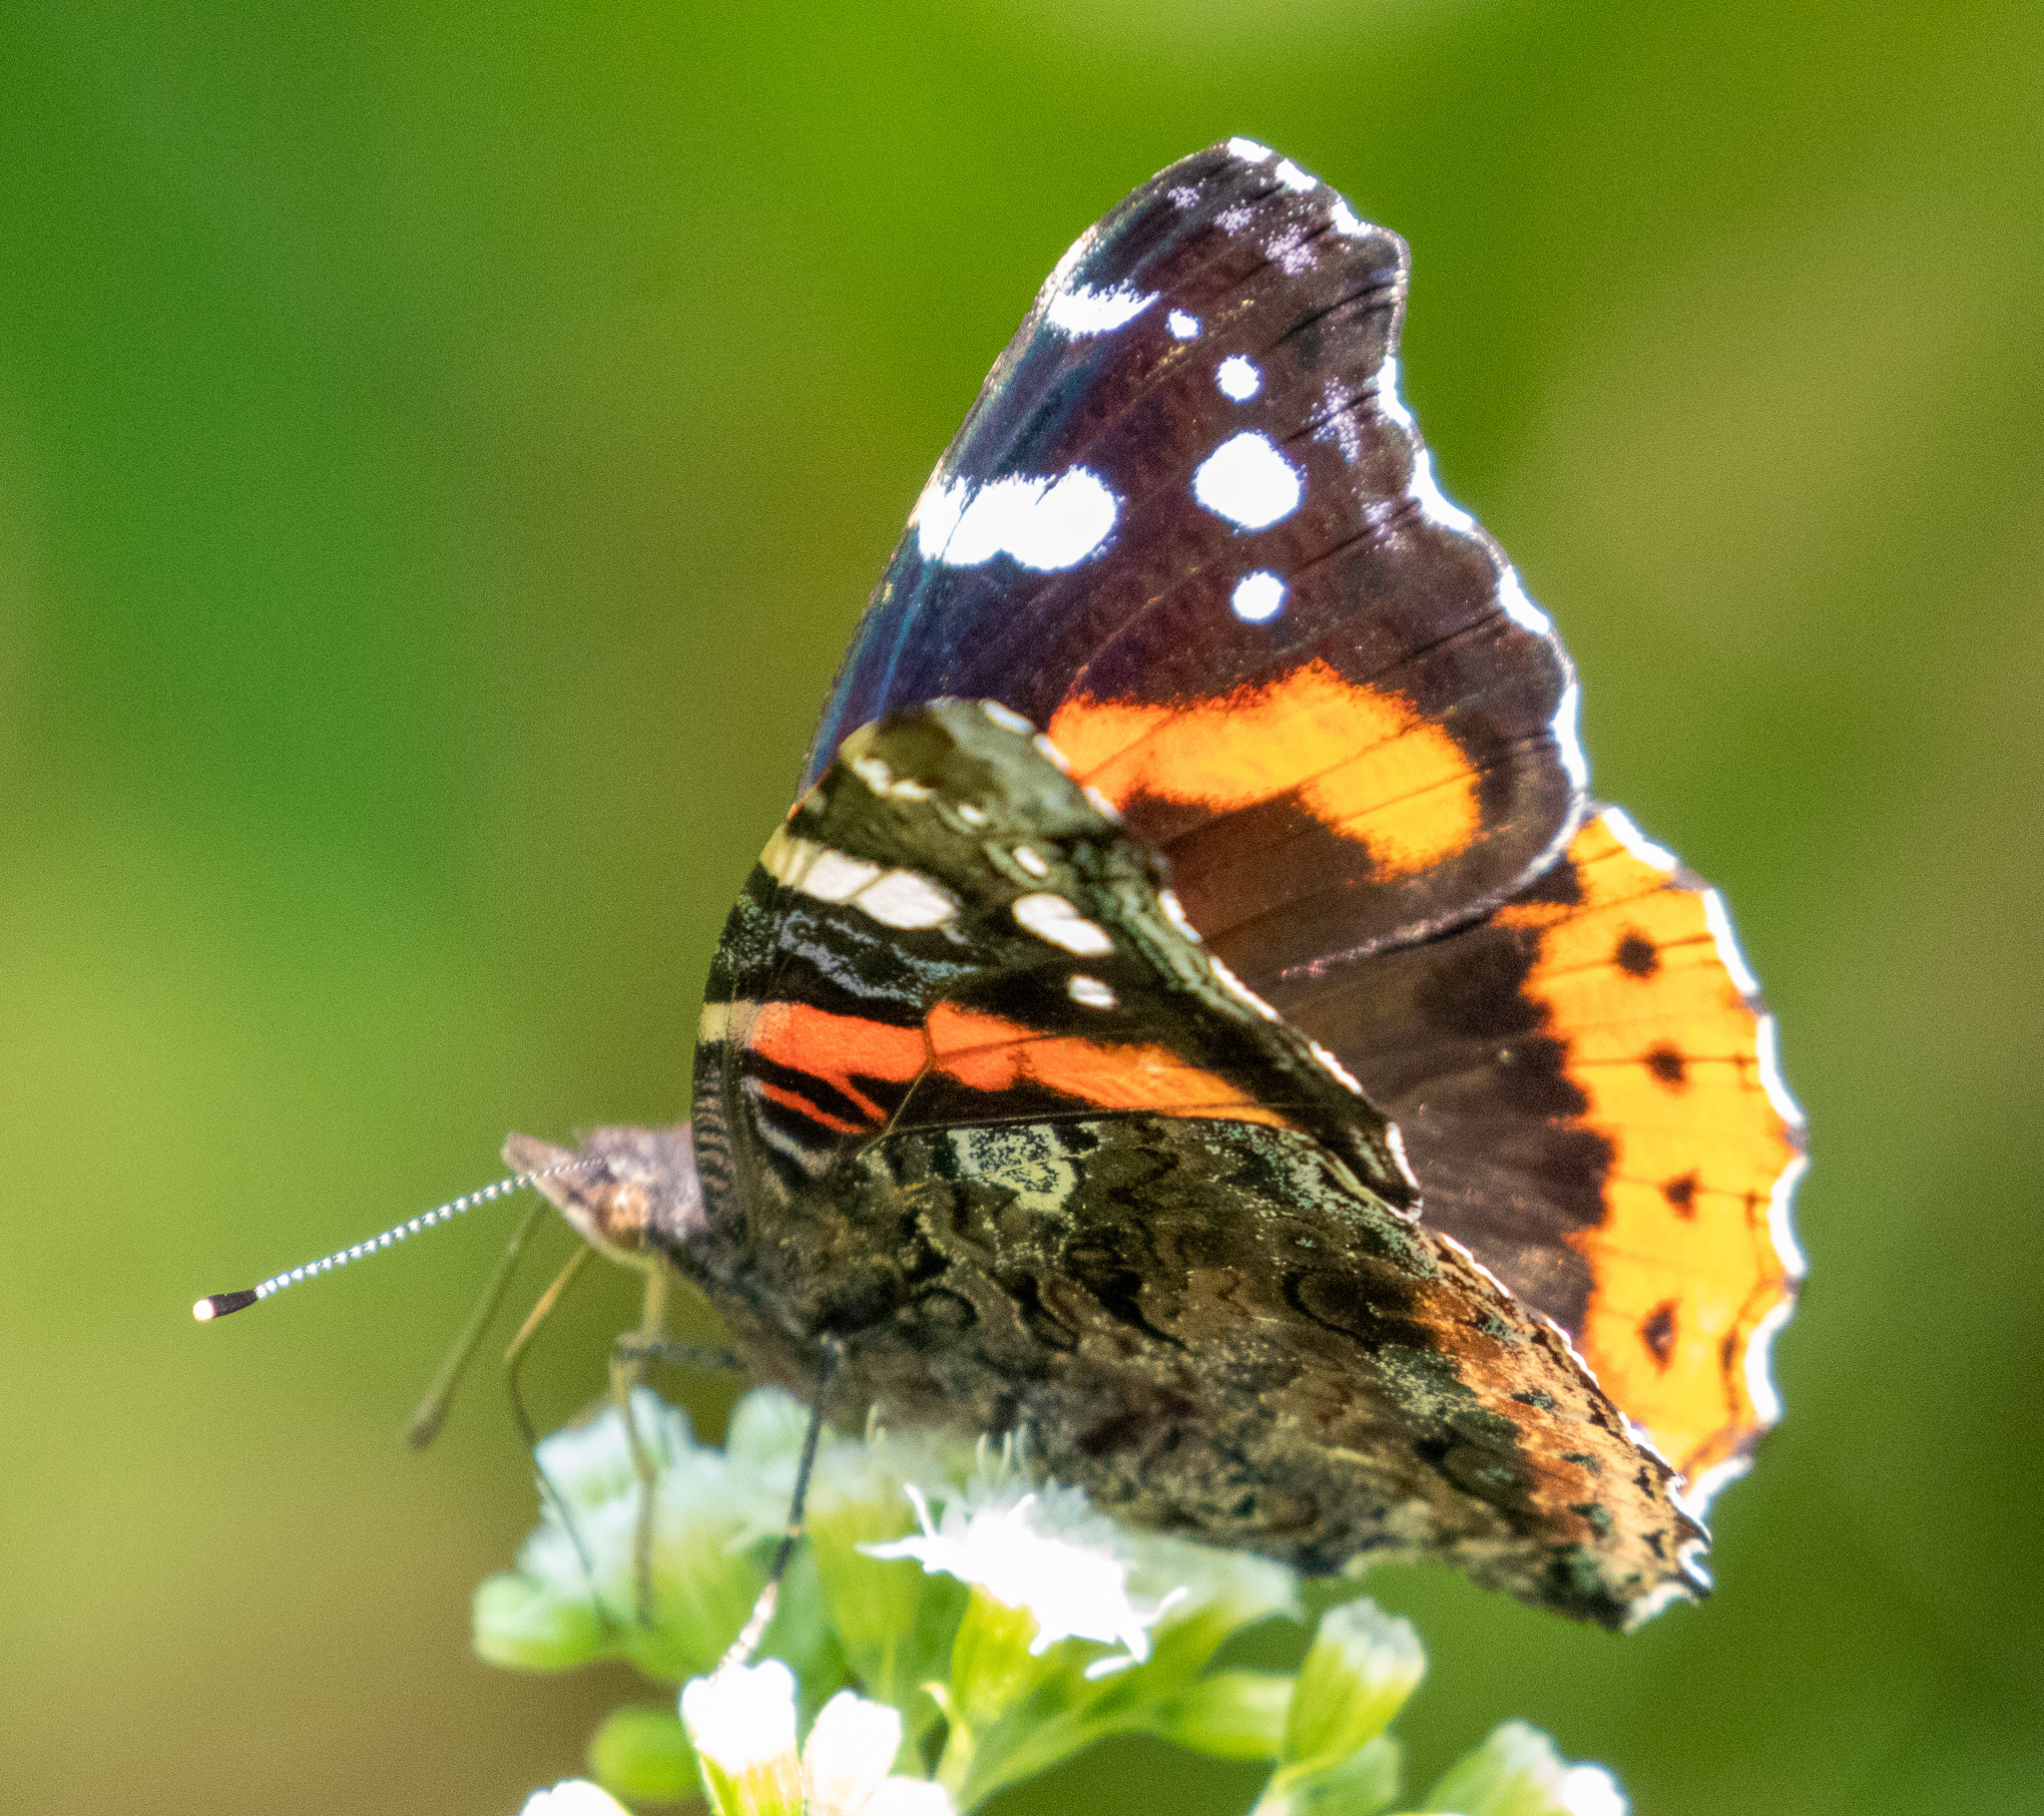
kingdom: Animalia
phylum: Arthropoda
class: Insecta
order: Lepidoptera
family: Nymphalidae
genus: Vanessa
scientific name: Vanessa atalanta
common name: Red admiral
